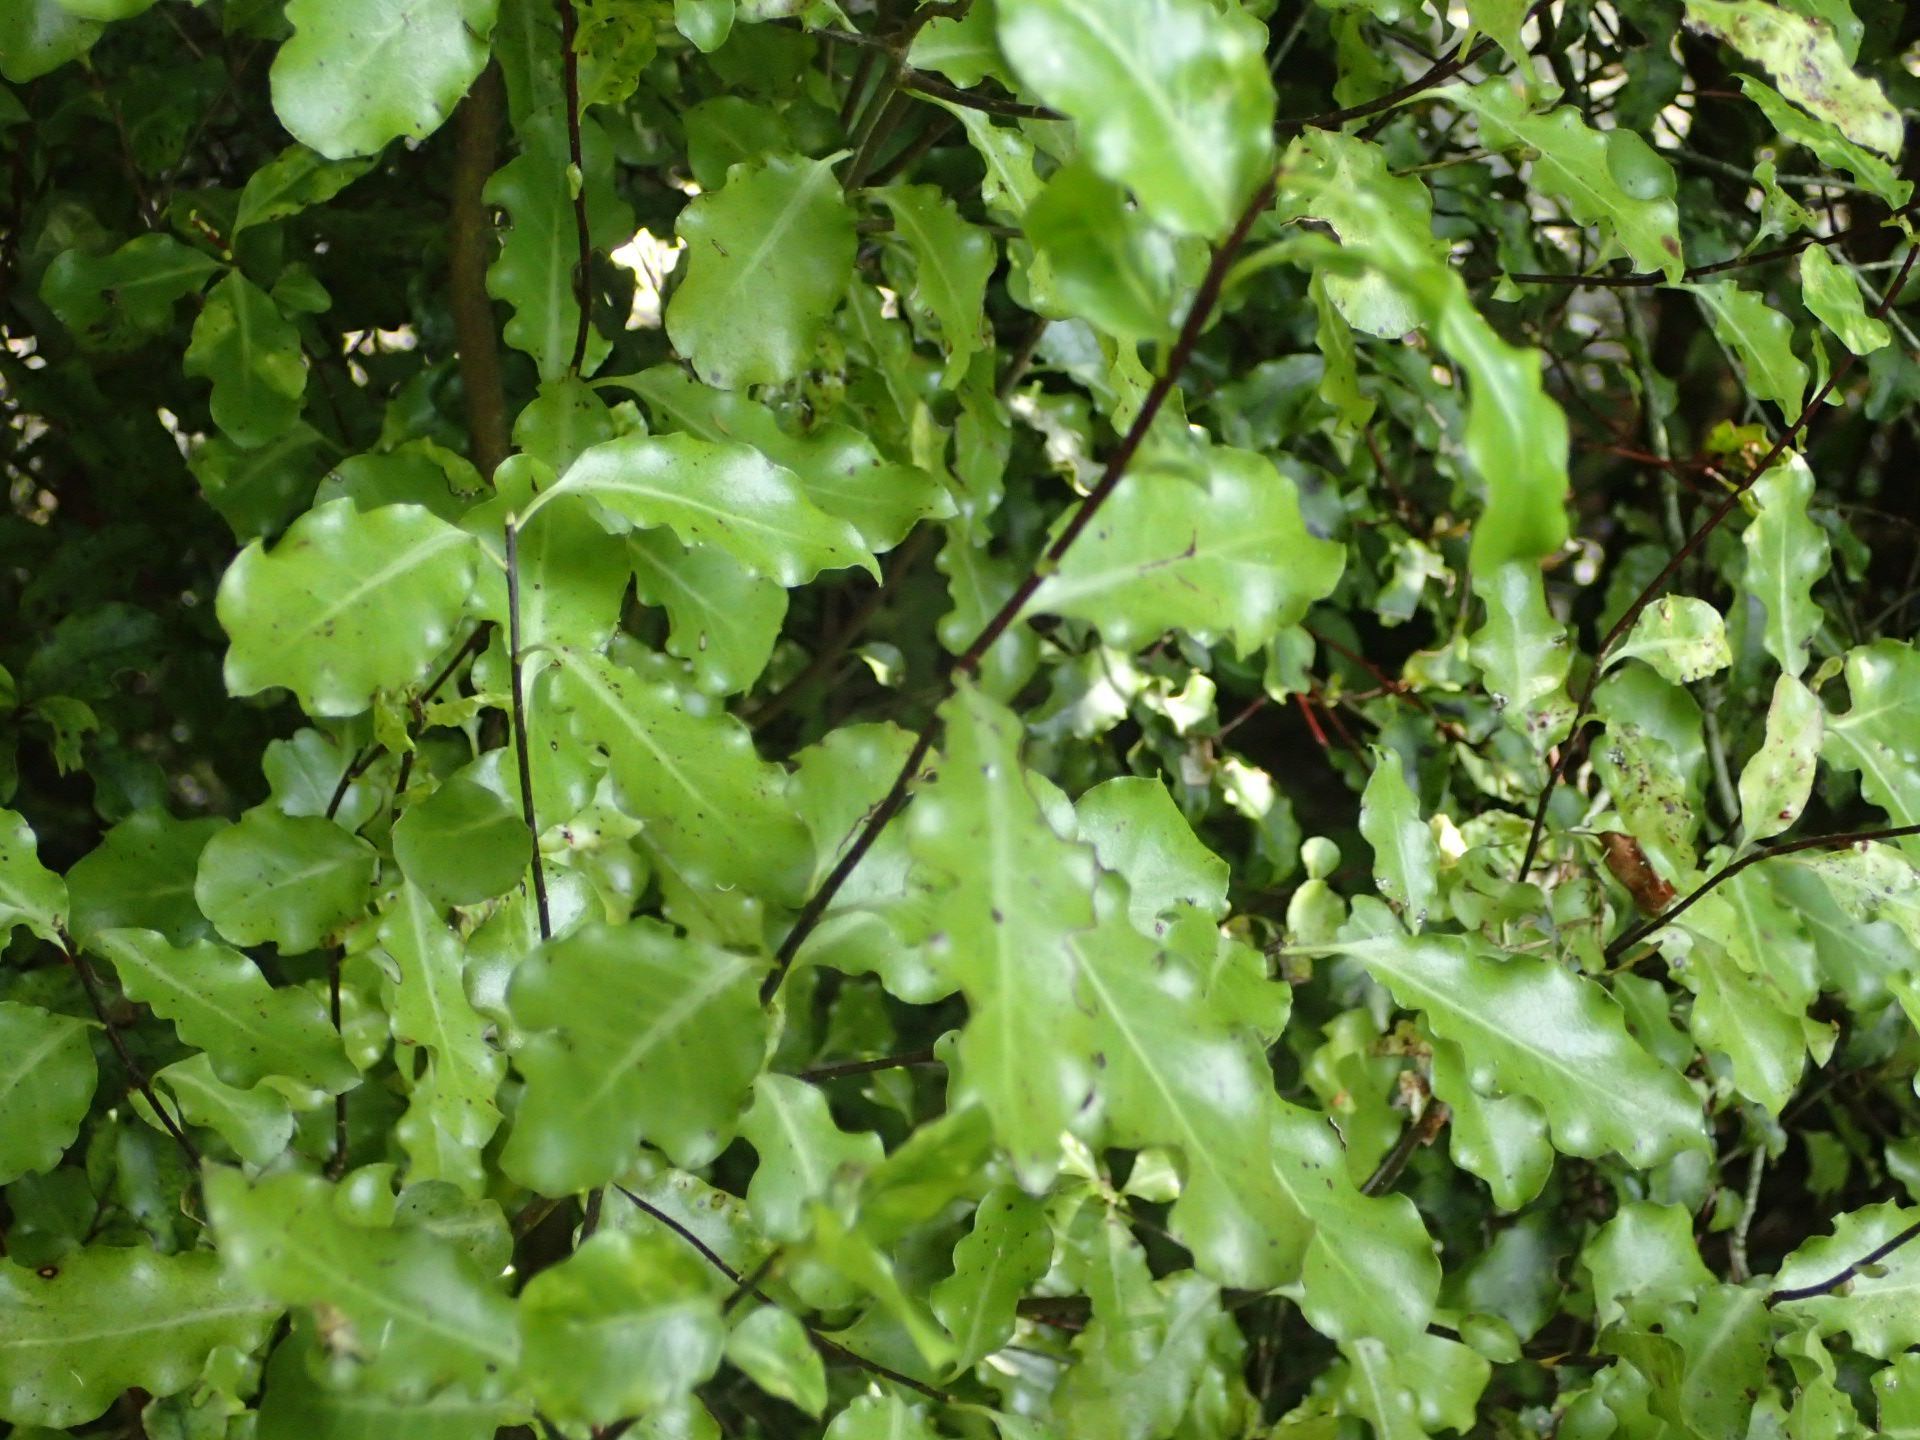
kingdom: Plantae
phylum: Tracheophyta
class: Magnoliopsida
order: Apiales
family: Pittosporaceae
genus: Pittosporum
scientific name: Pittosporum tenuifolium
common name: Kohuhu
